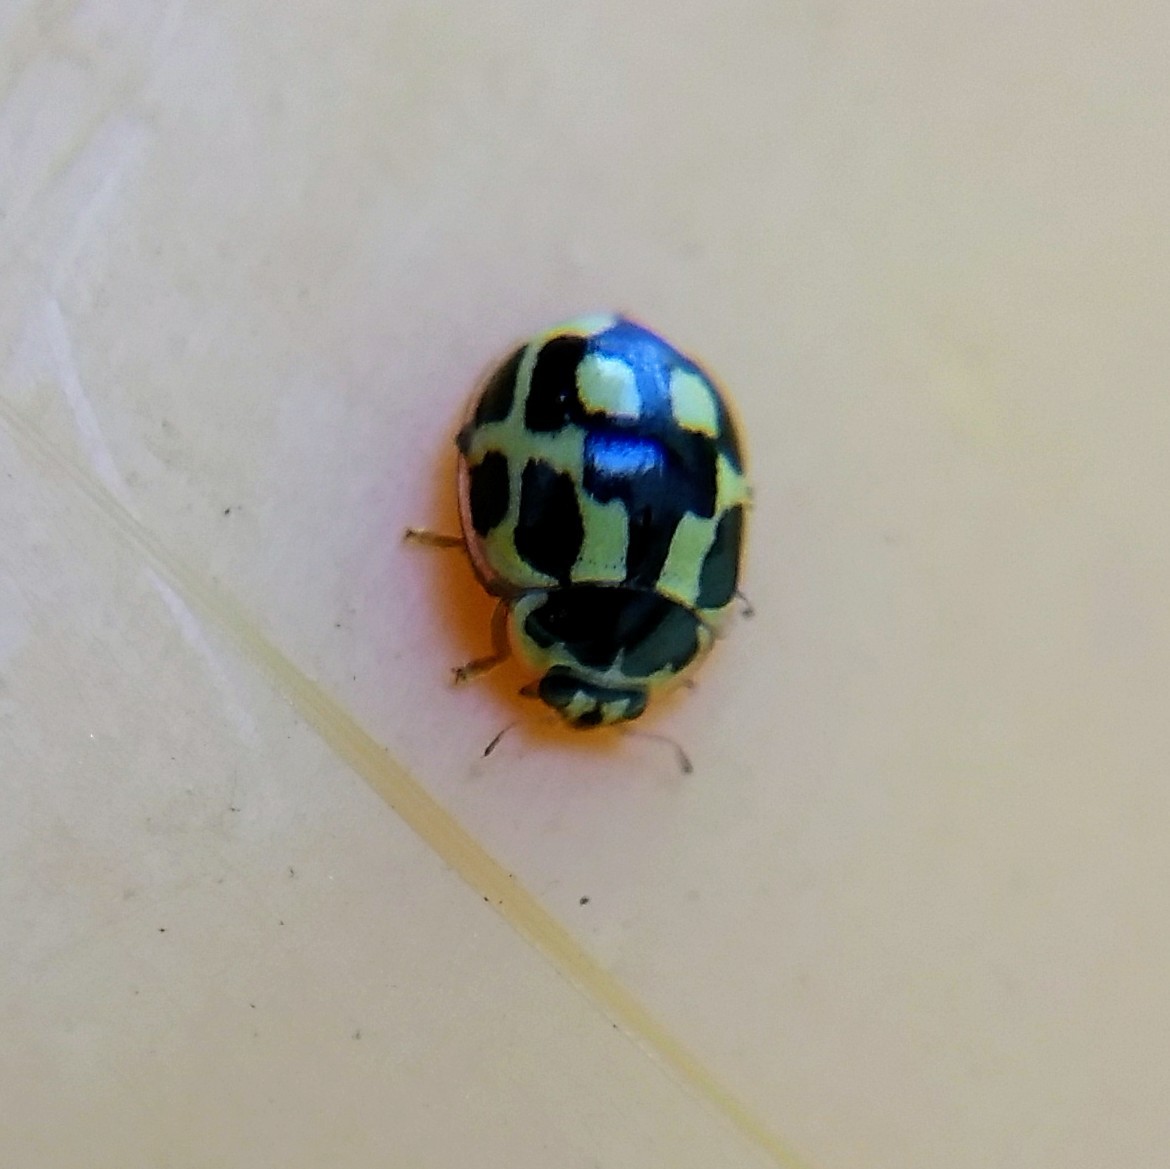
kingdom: Animalia
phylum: Arthropoda
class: Insecta
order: Coleoptera
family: Coccinellidae
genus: Propylaea
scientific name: Propylaea quatuordecimpunctata
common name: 14-spotted ladybird beetle
